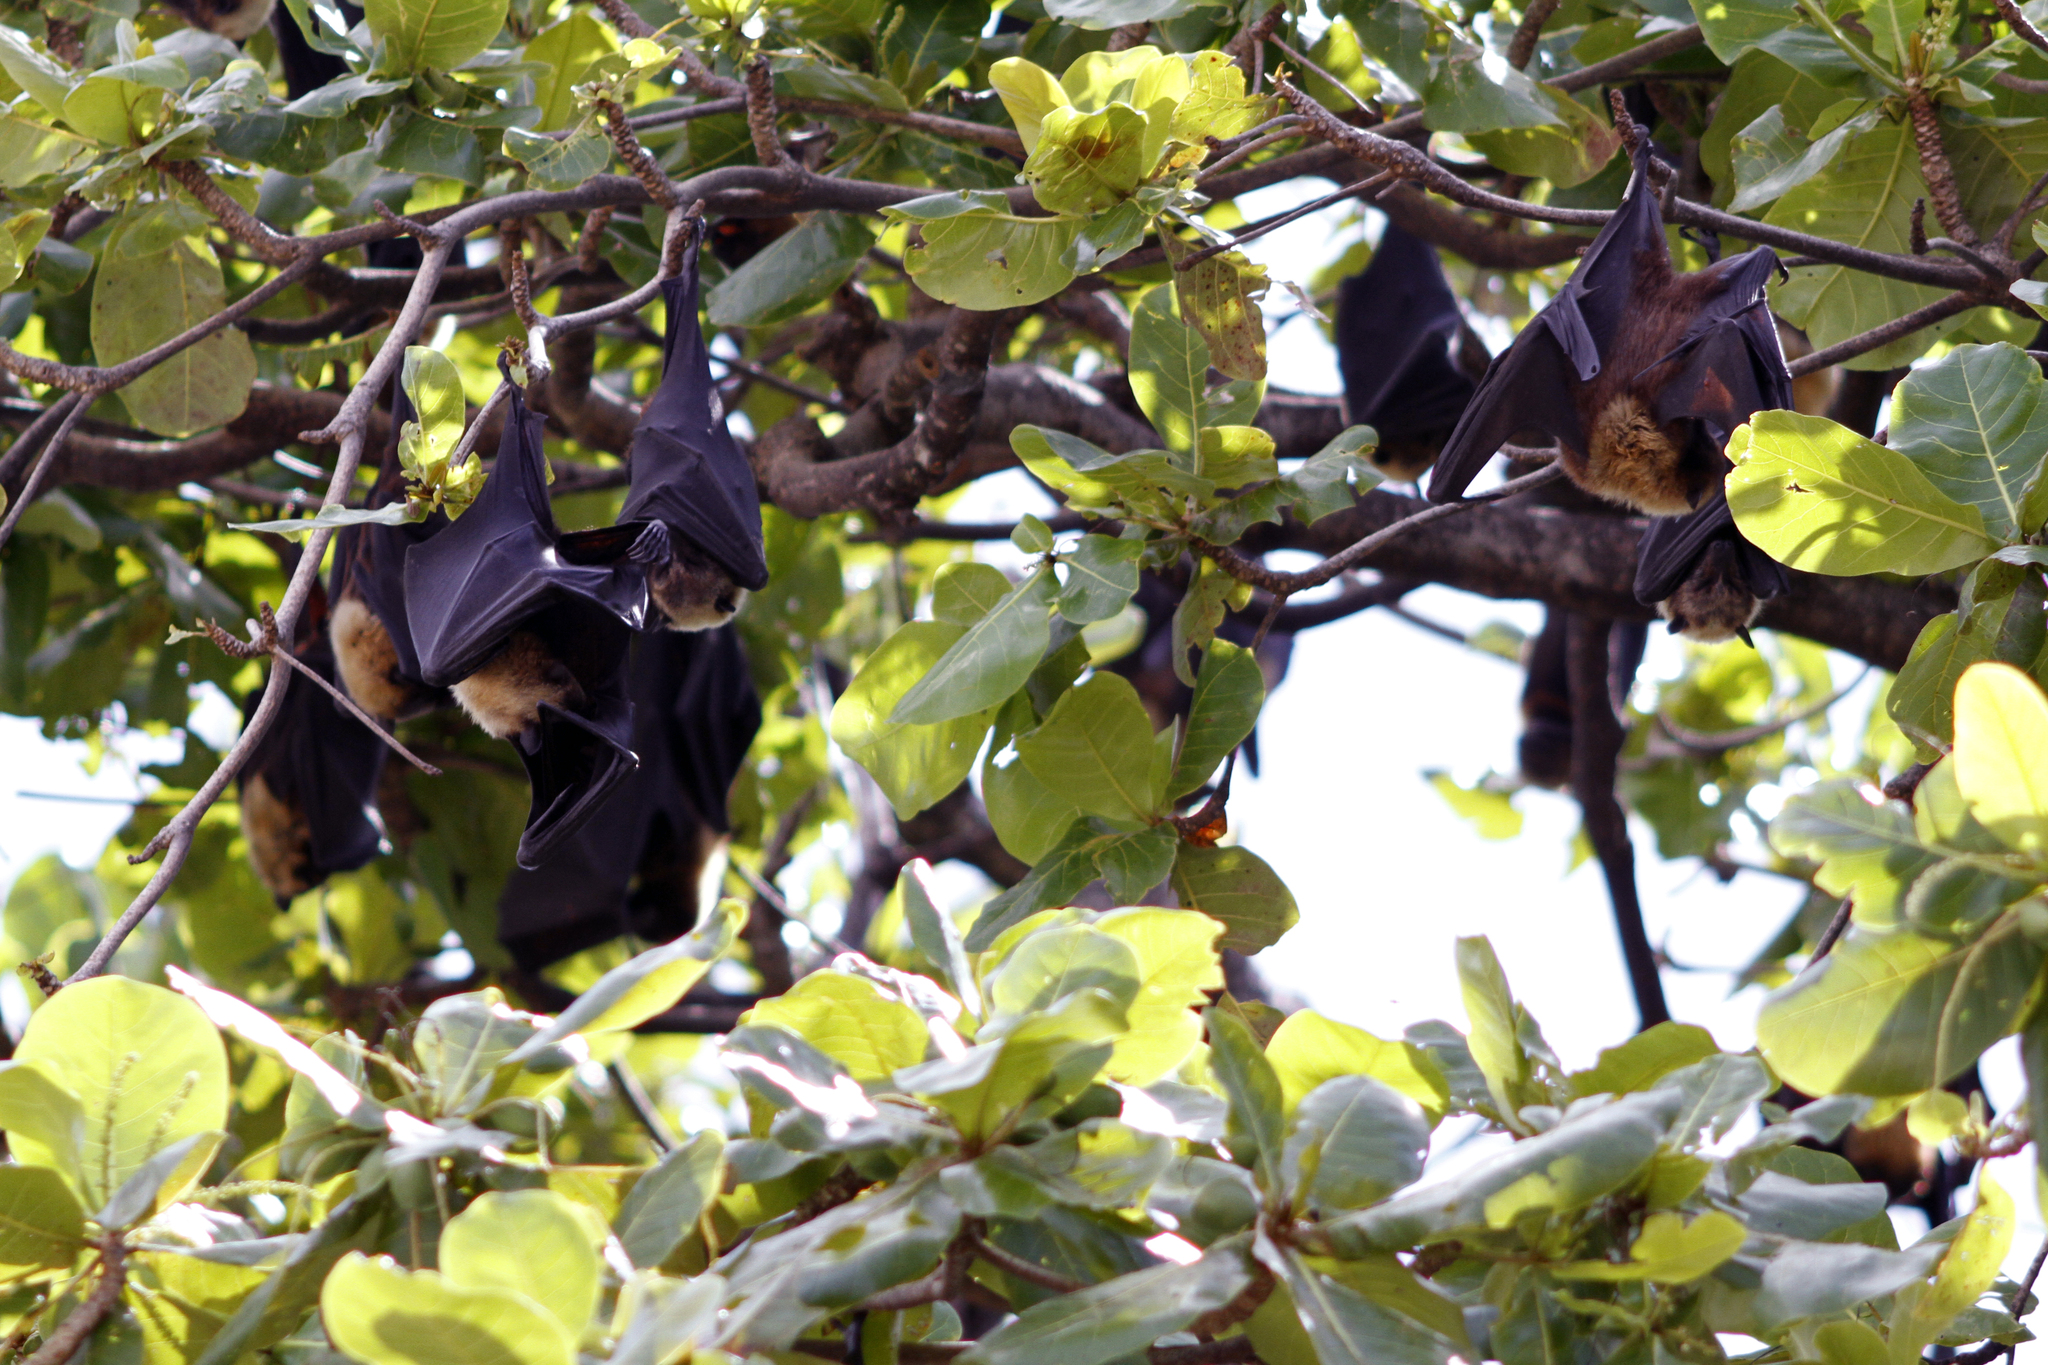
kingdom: Animalia
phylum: Chordata
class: Mammalia
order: Chiroptera
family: Pteropodidae
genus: Pteropus
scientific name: Pteropus tonganus
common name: Pacific flying fox
